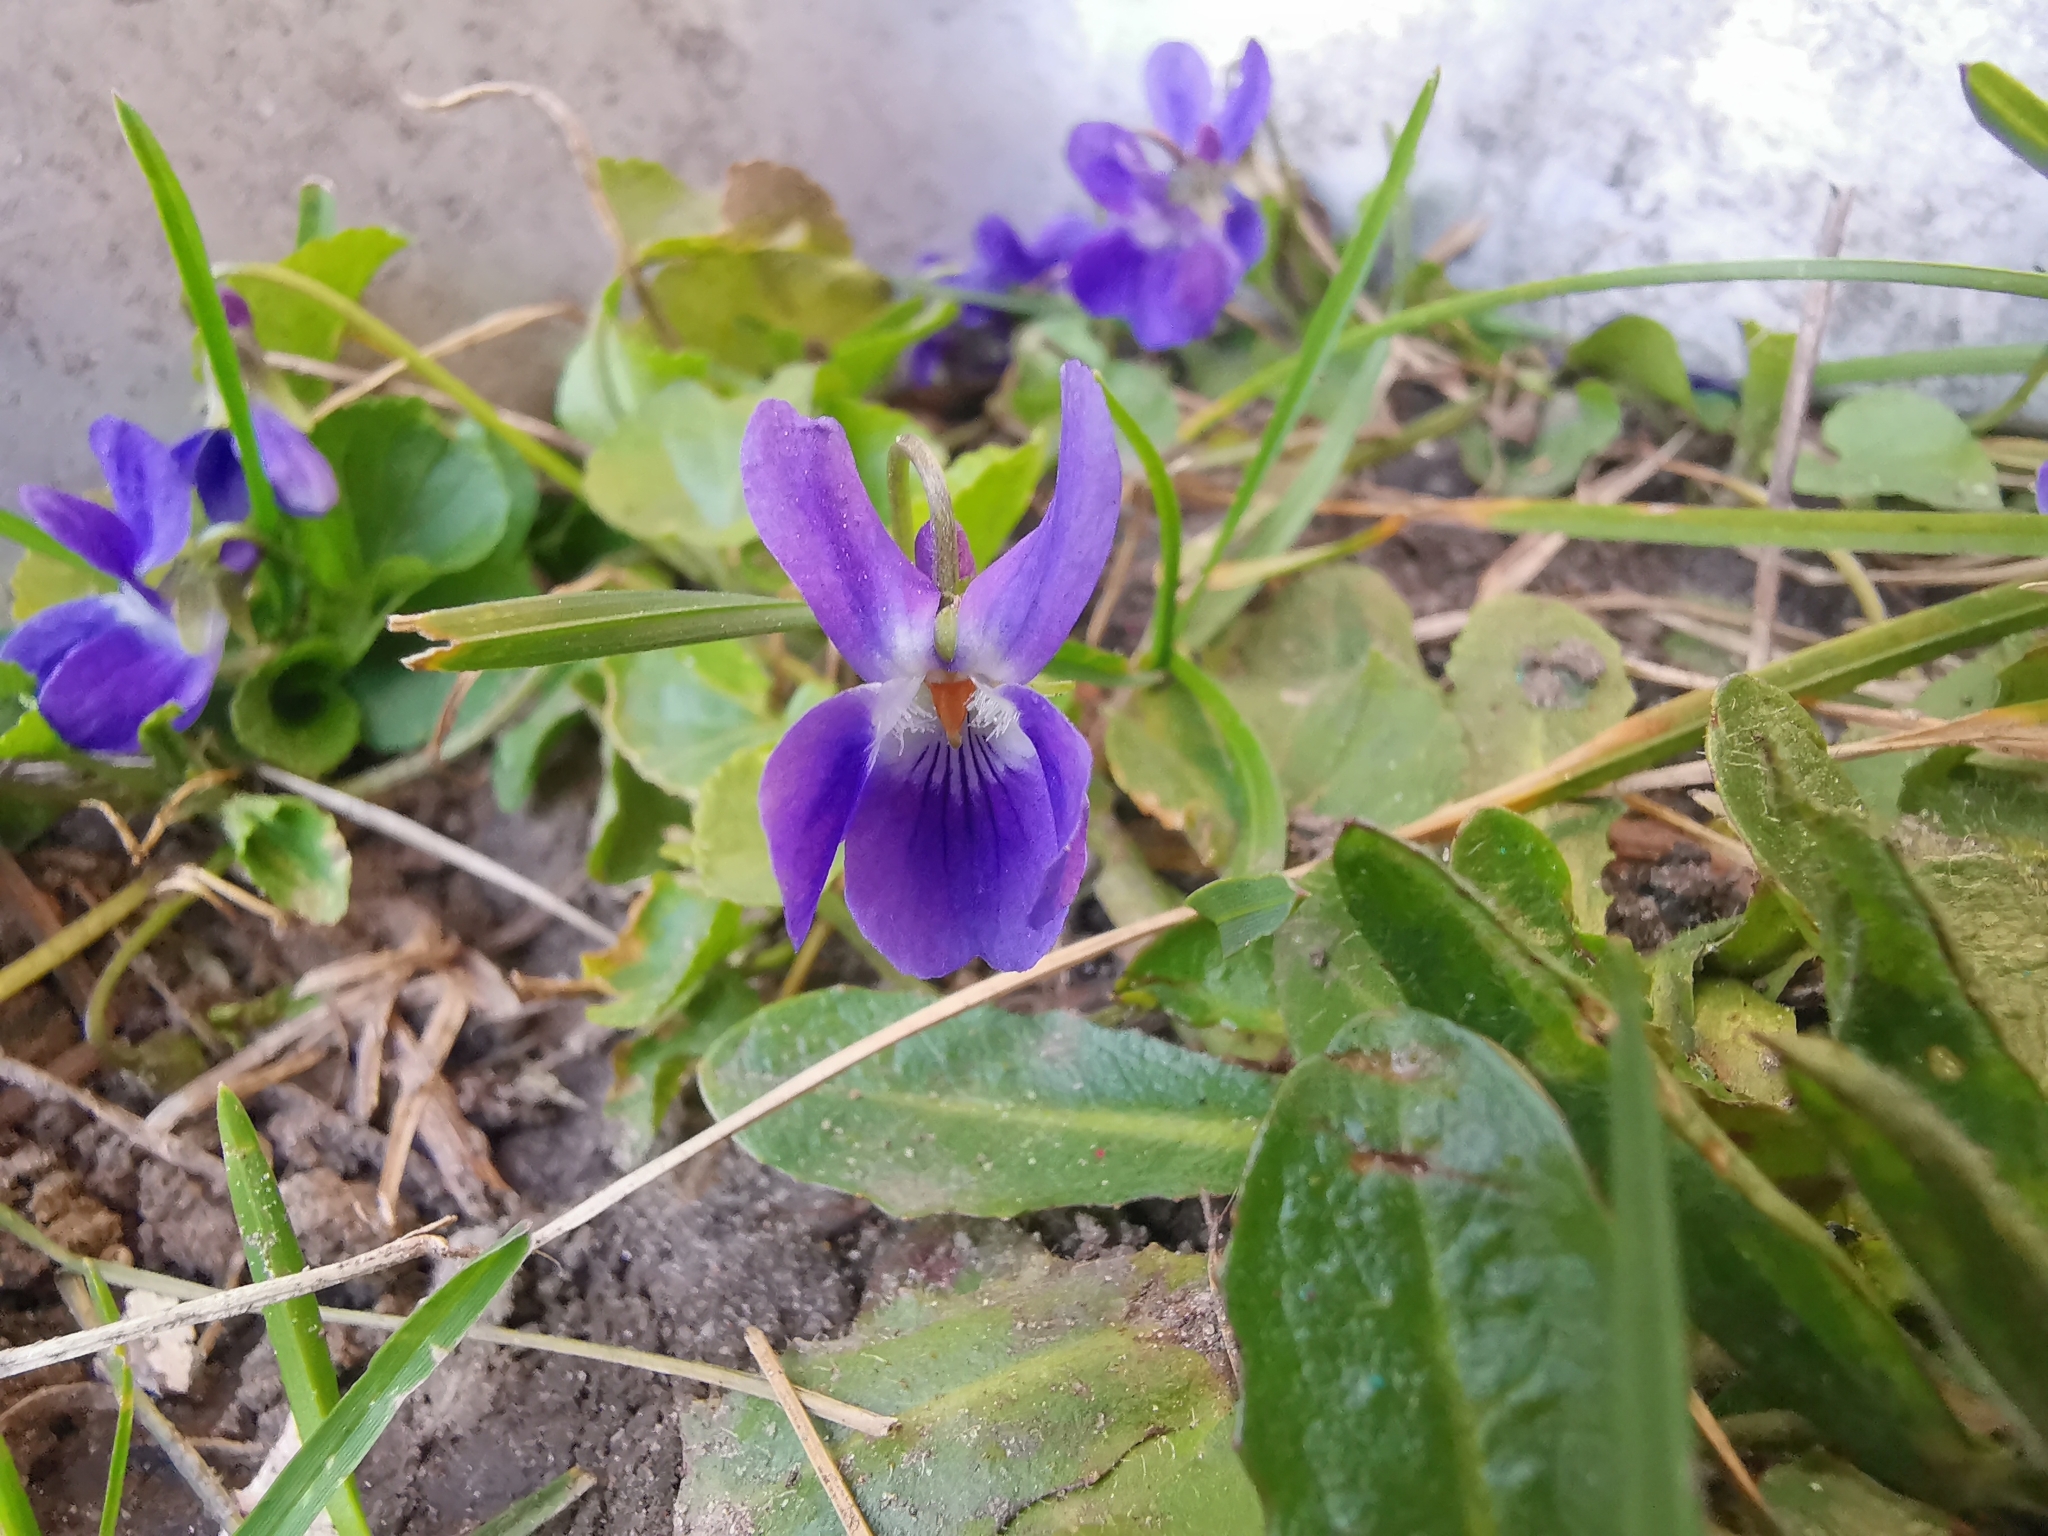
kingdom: Plantae
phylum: Tracheophyta
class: Magnoliopsida
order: Malpighiales
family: Violaceae
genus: Viola
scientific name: Viola odorata
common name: Sweet violet
